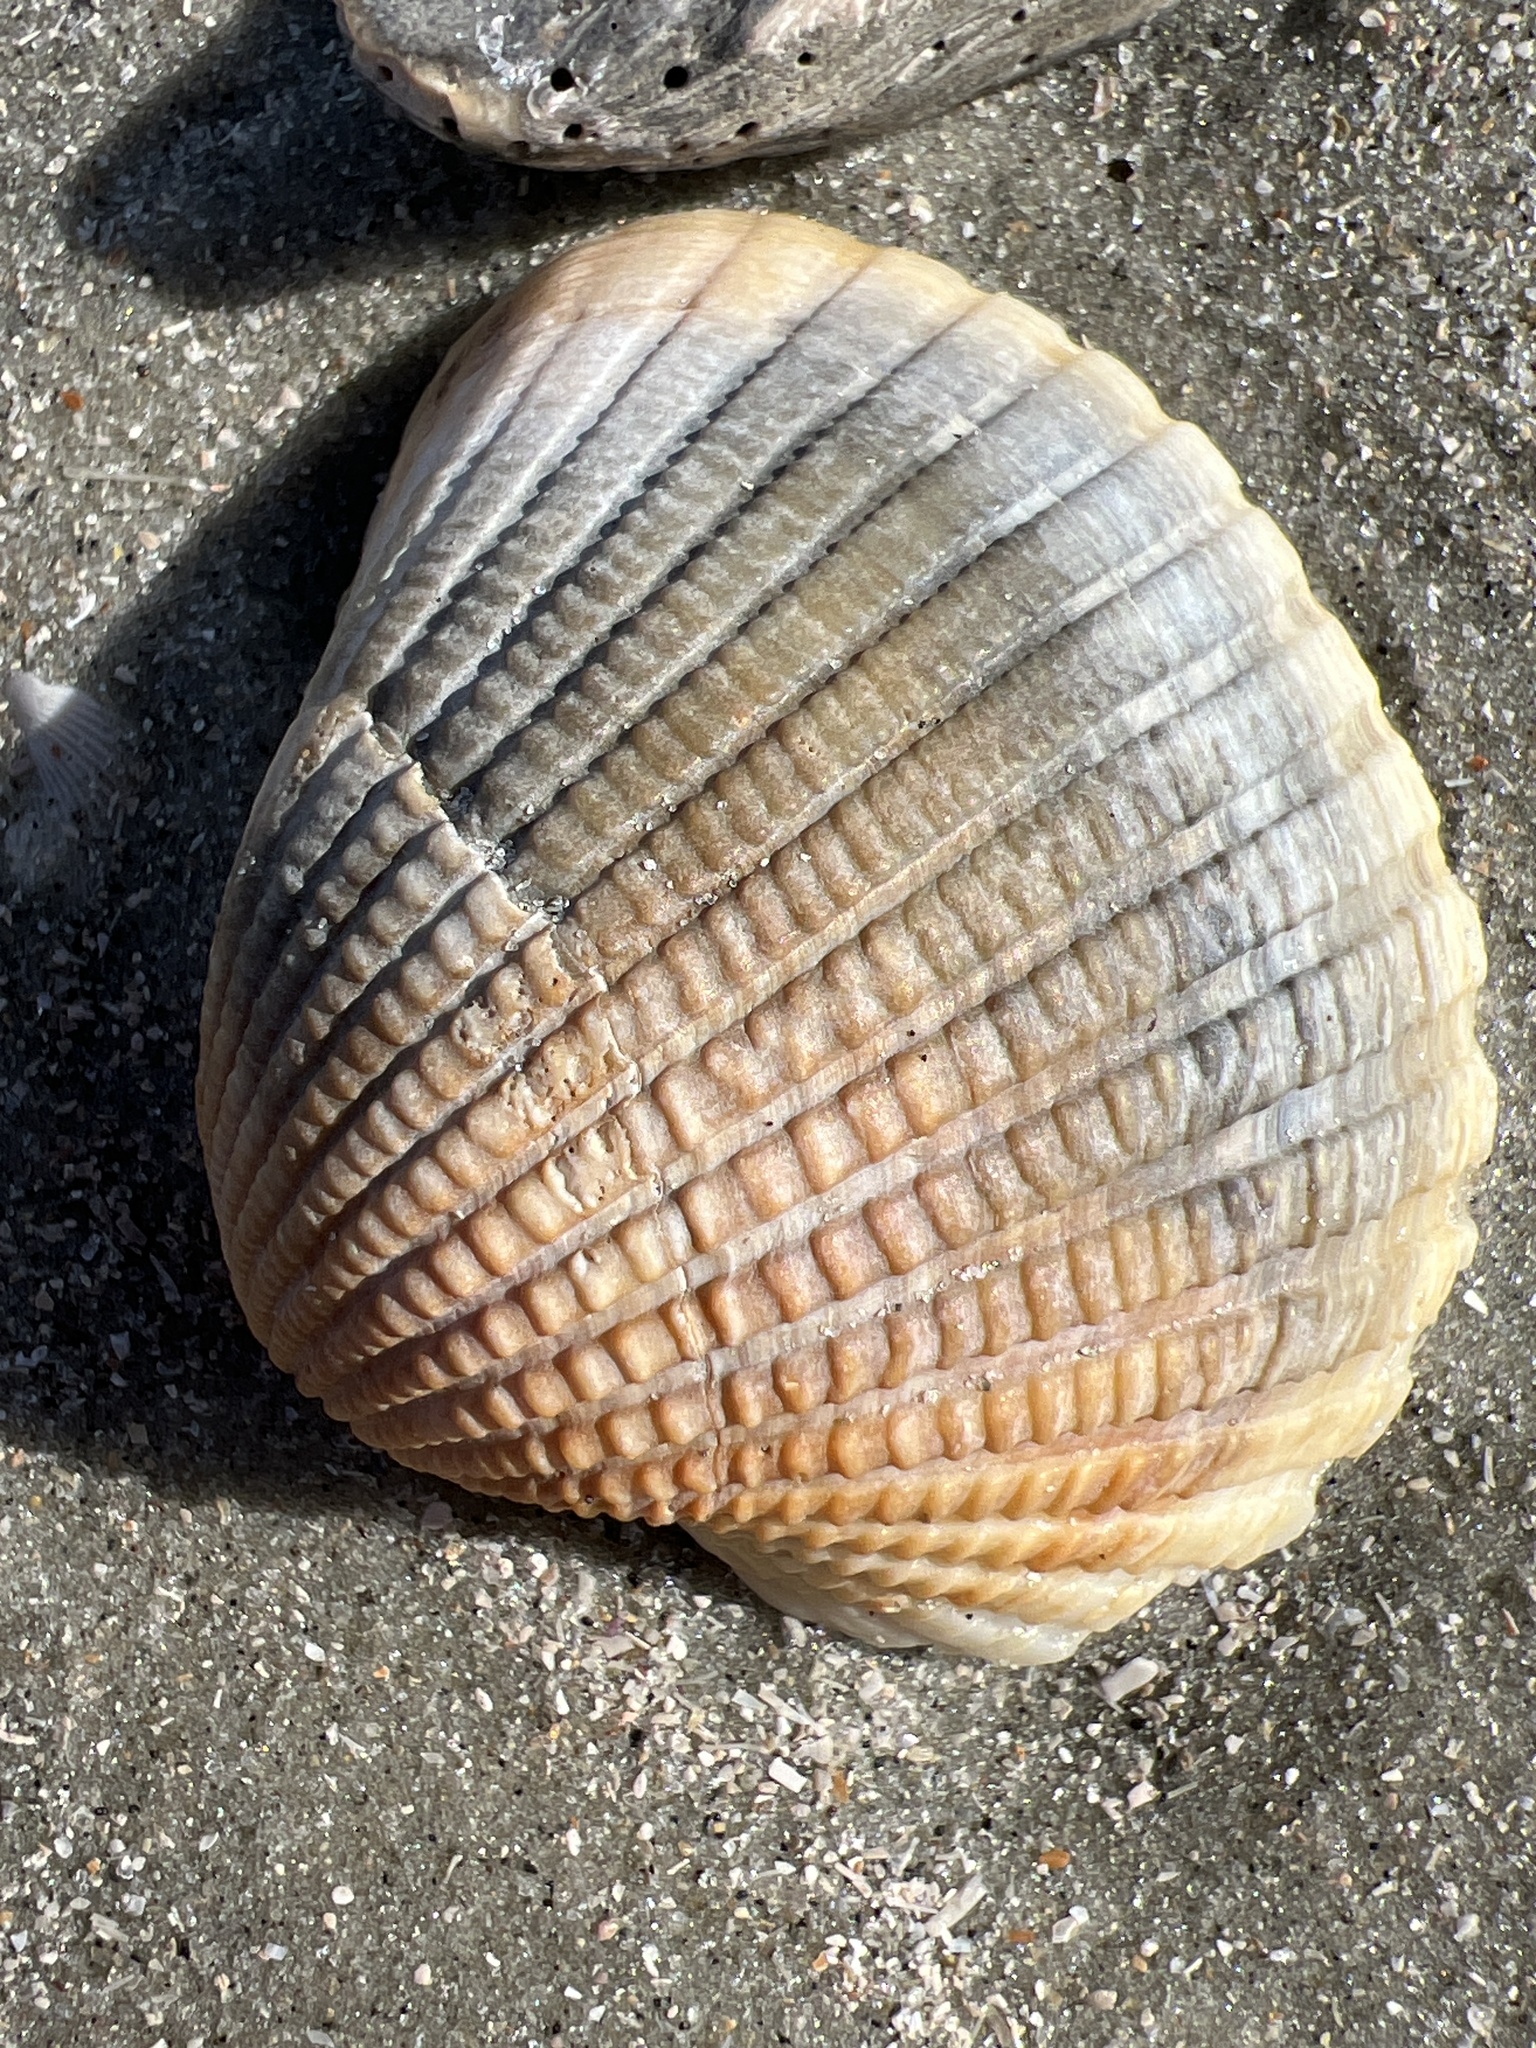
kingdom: Animalia
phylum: Mollusca
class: Bivalvia
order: Arcida
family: Arcidae
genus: Anadara
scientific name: Anadara brasiliana
